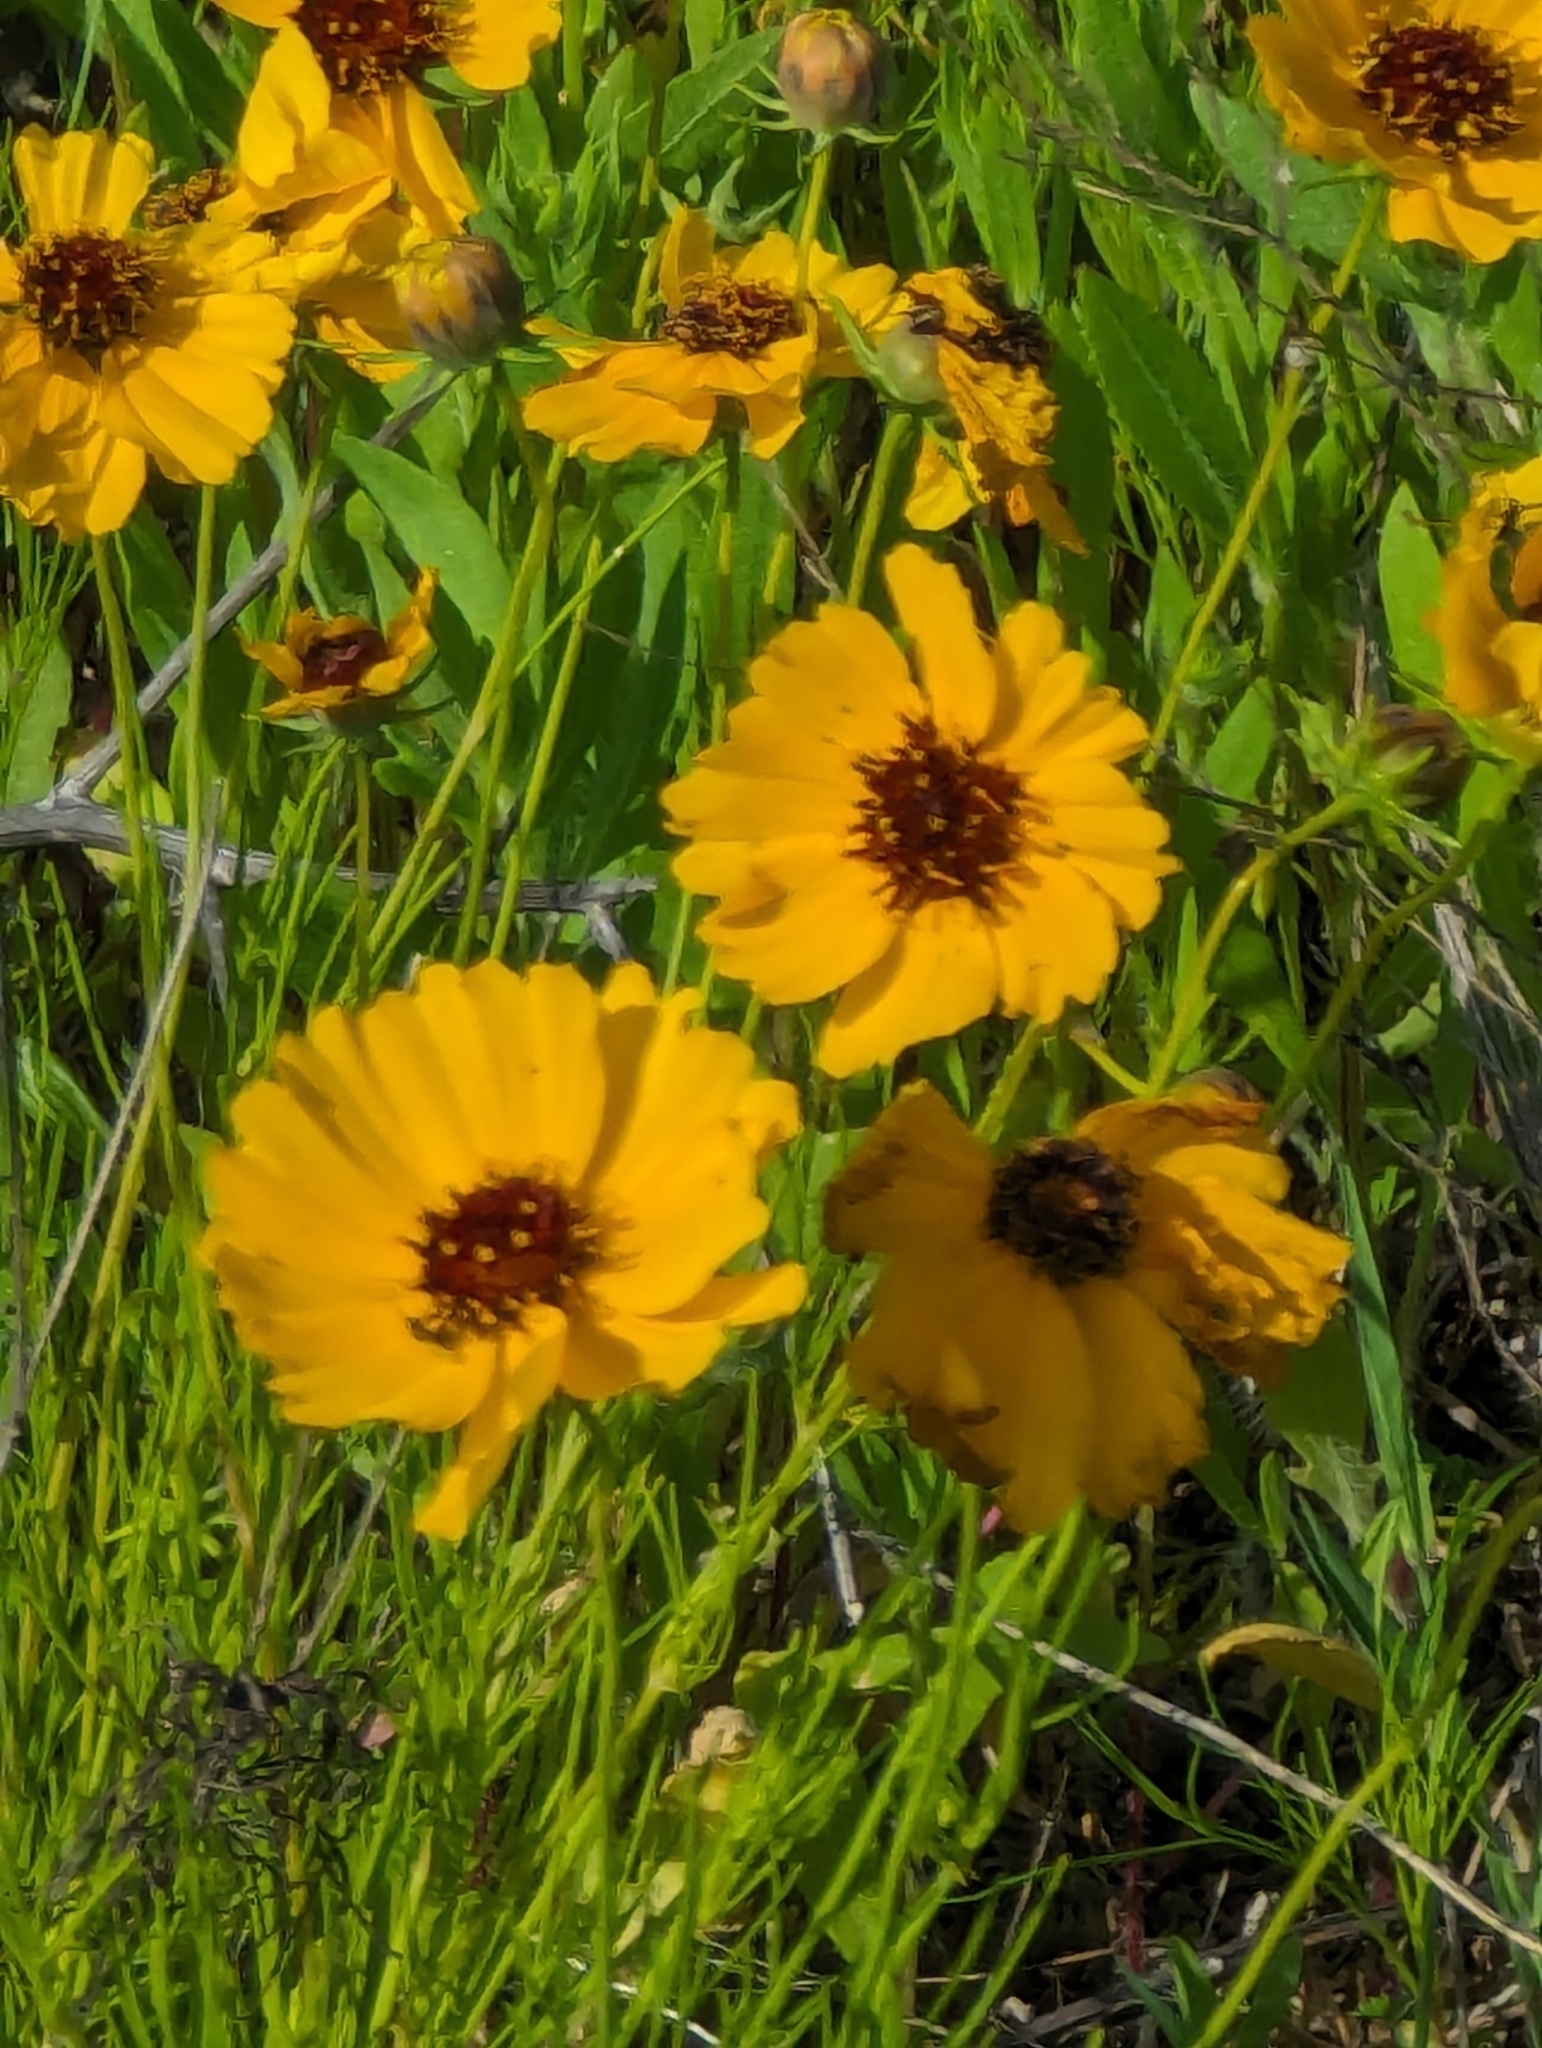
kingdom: Plantae
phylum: Tracheophyta
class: Magnoliopsida
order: Asterales
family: Asteraceae
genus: Thelesperma
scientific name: Thelesperma filifolium
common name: Stiff greenthread
